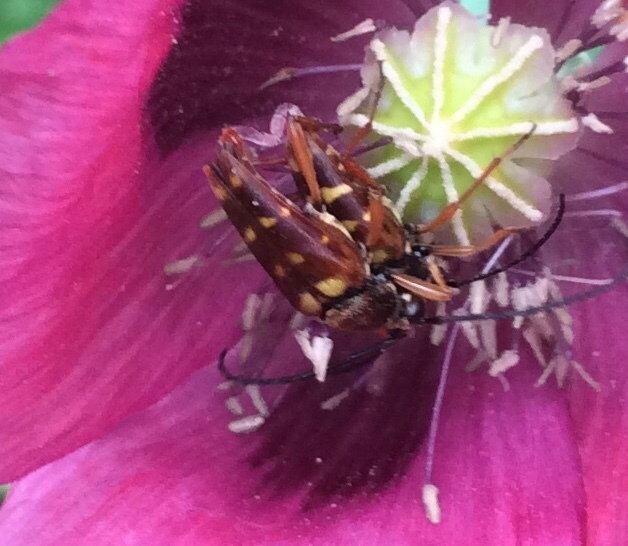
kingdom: Animalia
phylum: Arthropoda
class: Insecta
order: Coleoptera
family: Cerambycidae
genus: Typocerus
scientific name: Typocerus velutinus
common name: Banded longhorn beetle
